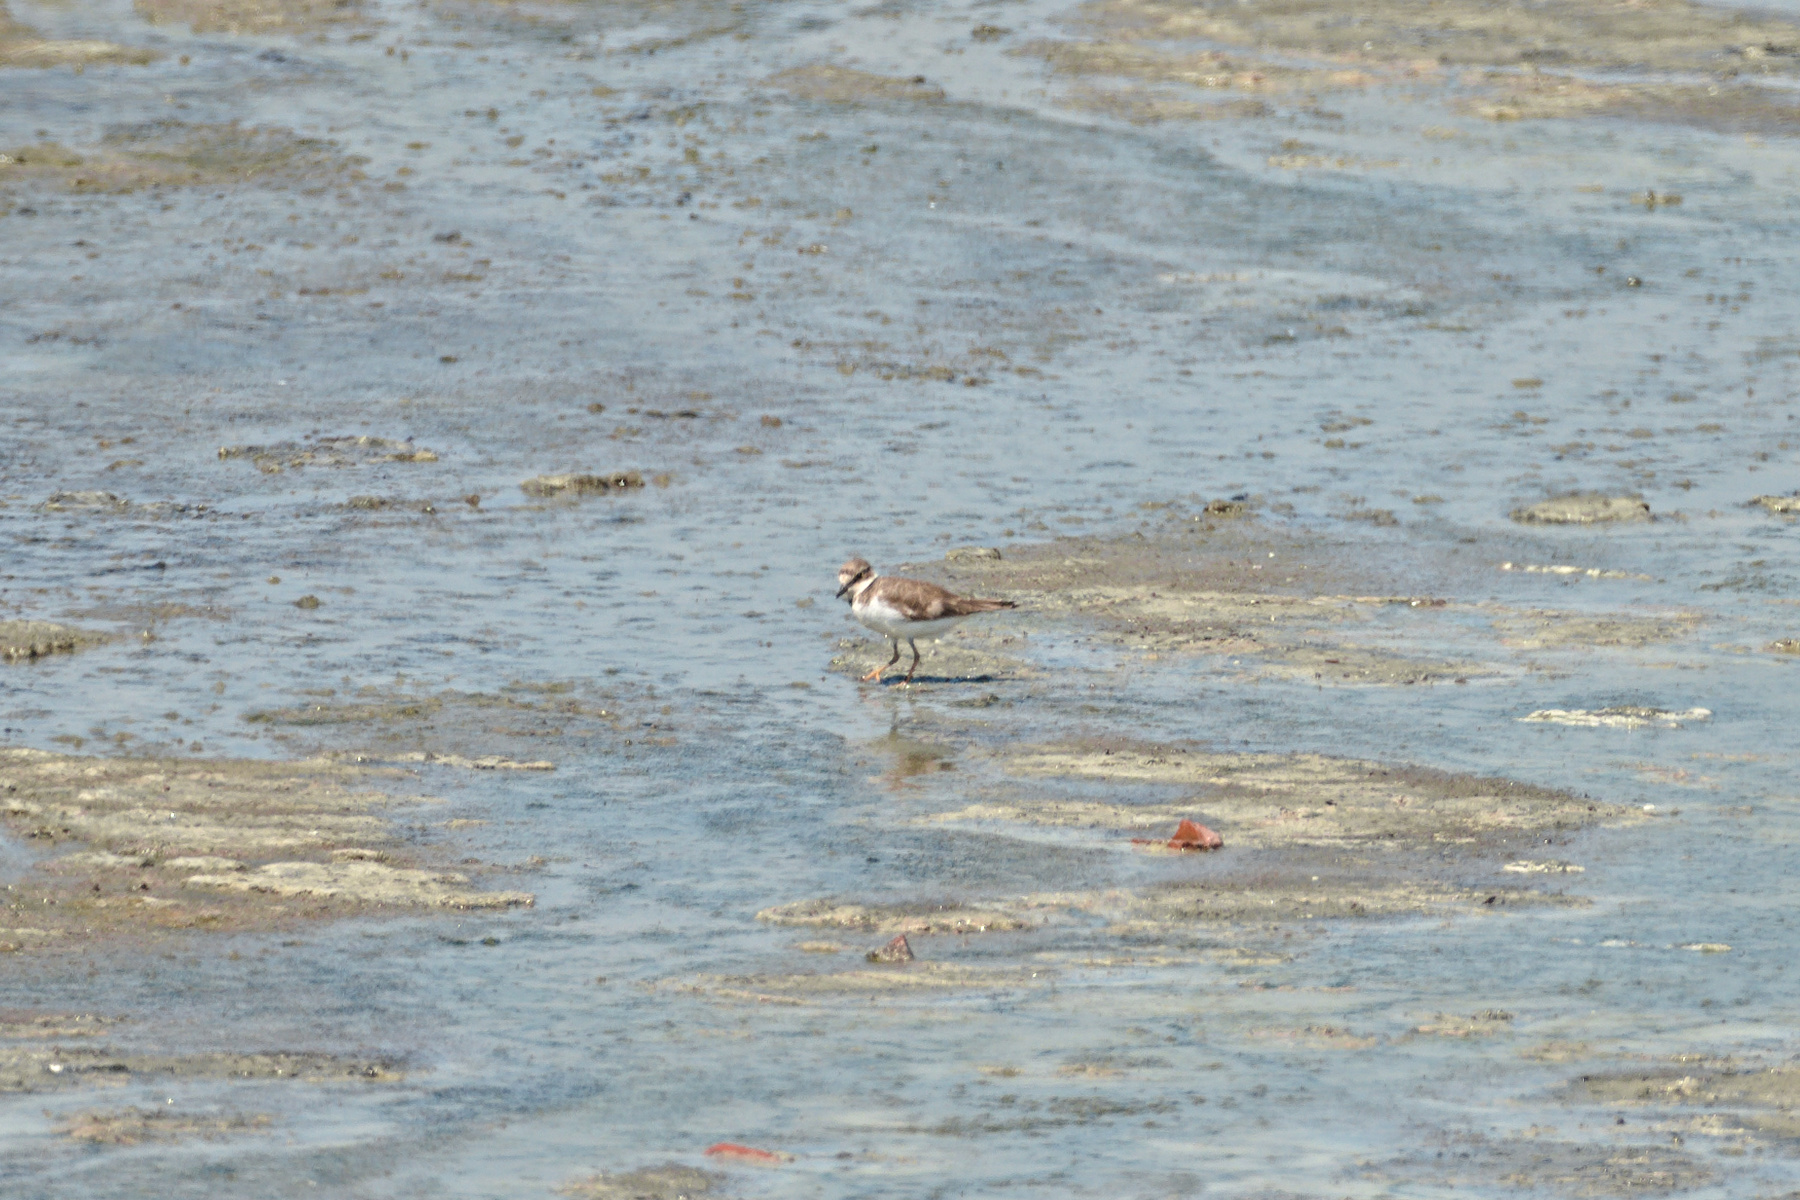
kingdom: Animalia
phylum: Chordata
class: Aves
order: Charadriiformes
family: Charadriidae
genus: Charadrius
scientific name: Charadrius dubius
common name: Little ringed plover
